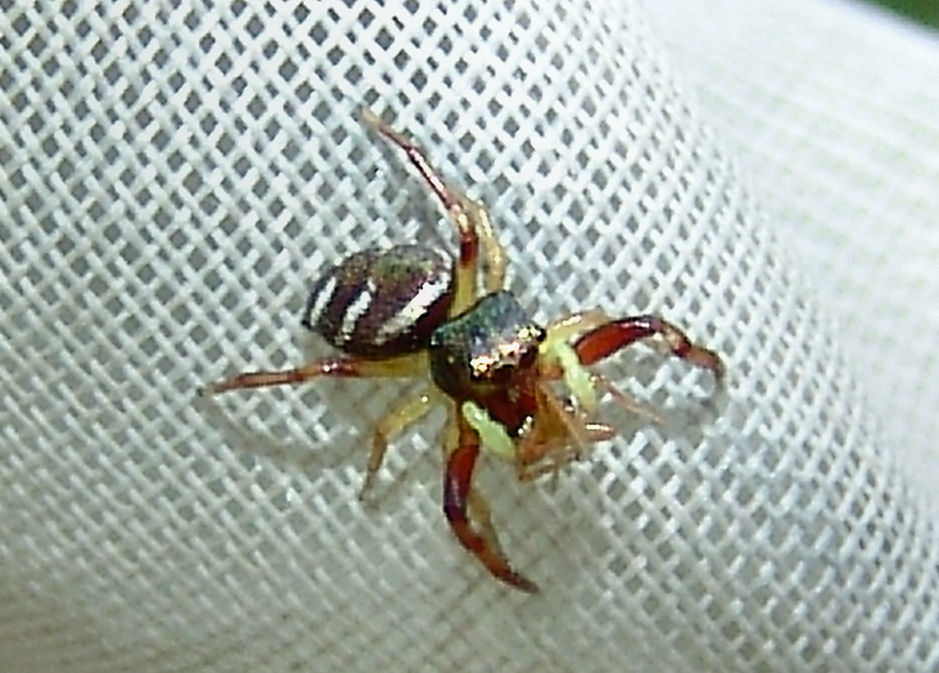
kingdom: Animalia
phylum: Arthropoda
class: Arachnida
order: Araneae
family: Salticidae
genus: Zygoballus
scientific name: Zygoballus rufipes
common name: Jumping spiders
